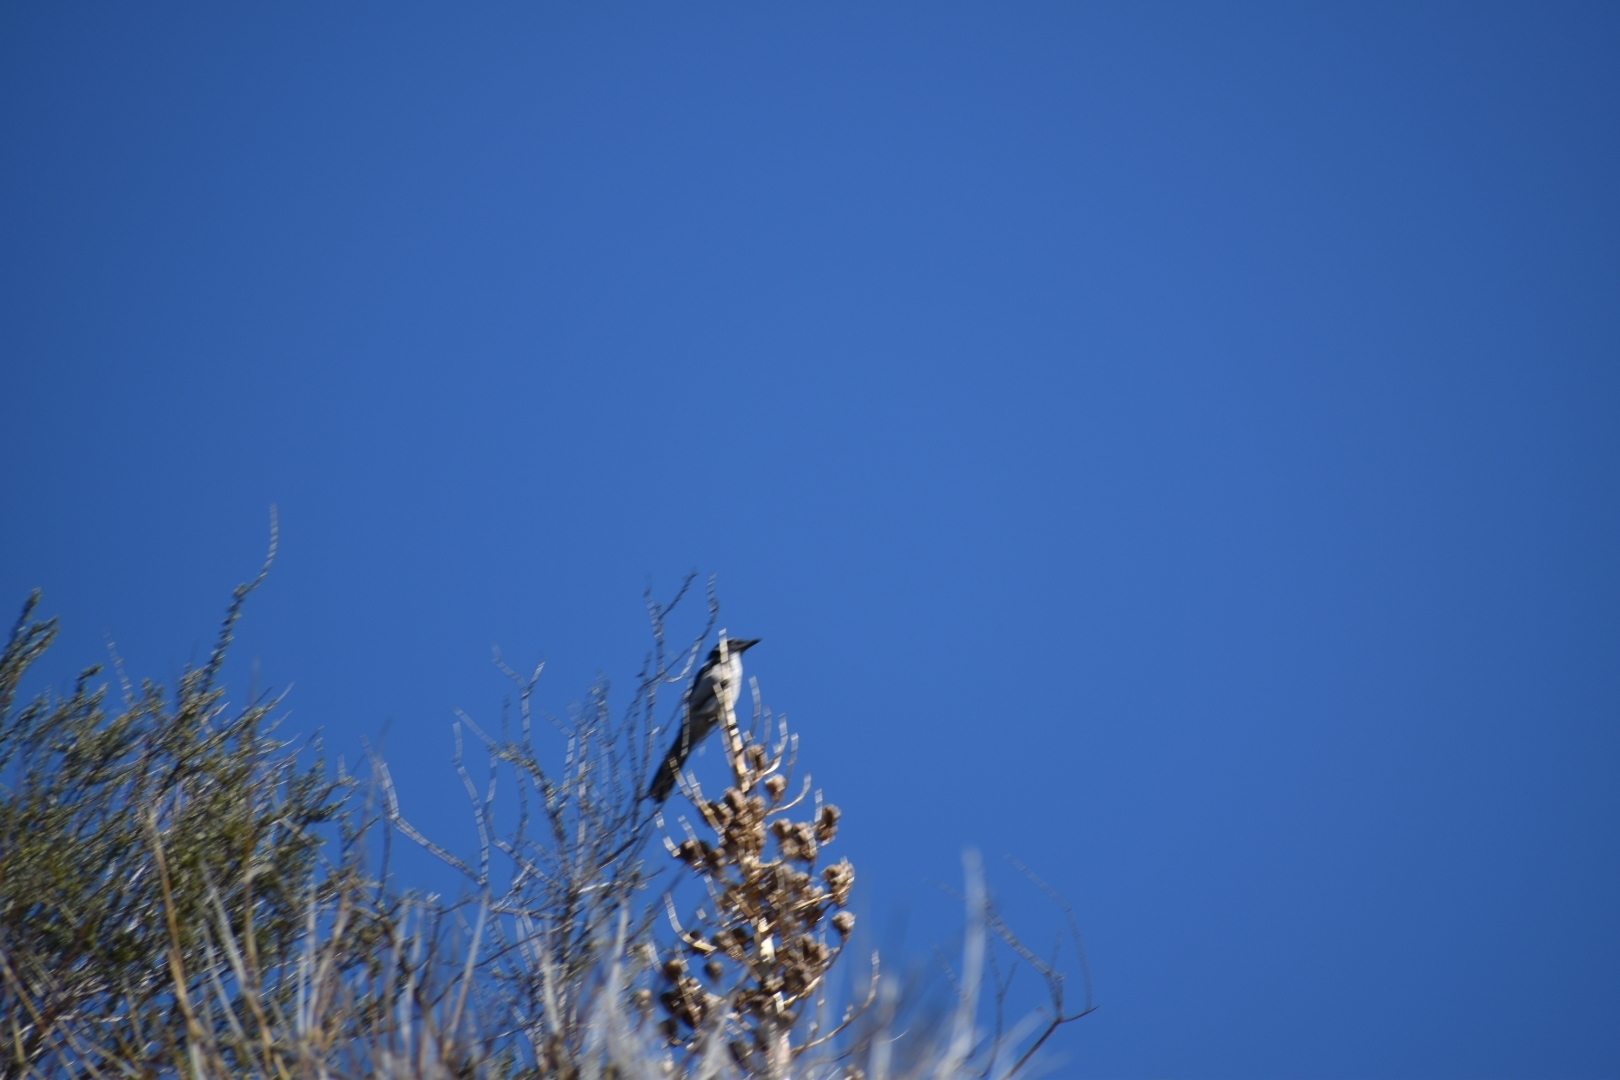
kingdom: Animalia
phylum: Chordata
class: Aves
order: Passeriformes
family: Corvidae
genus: Aphelocoma
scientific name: Aphelocoma californica
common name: California scrub-jay
